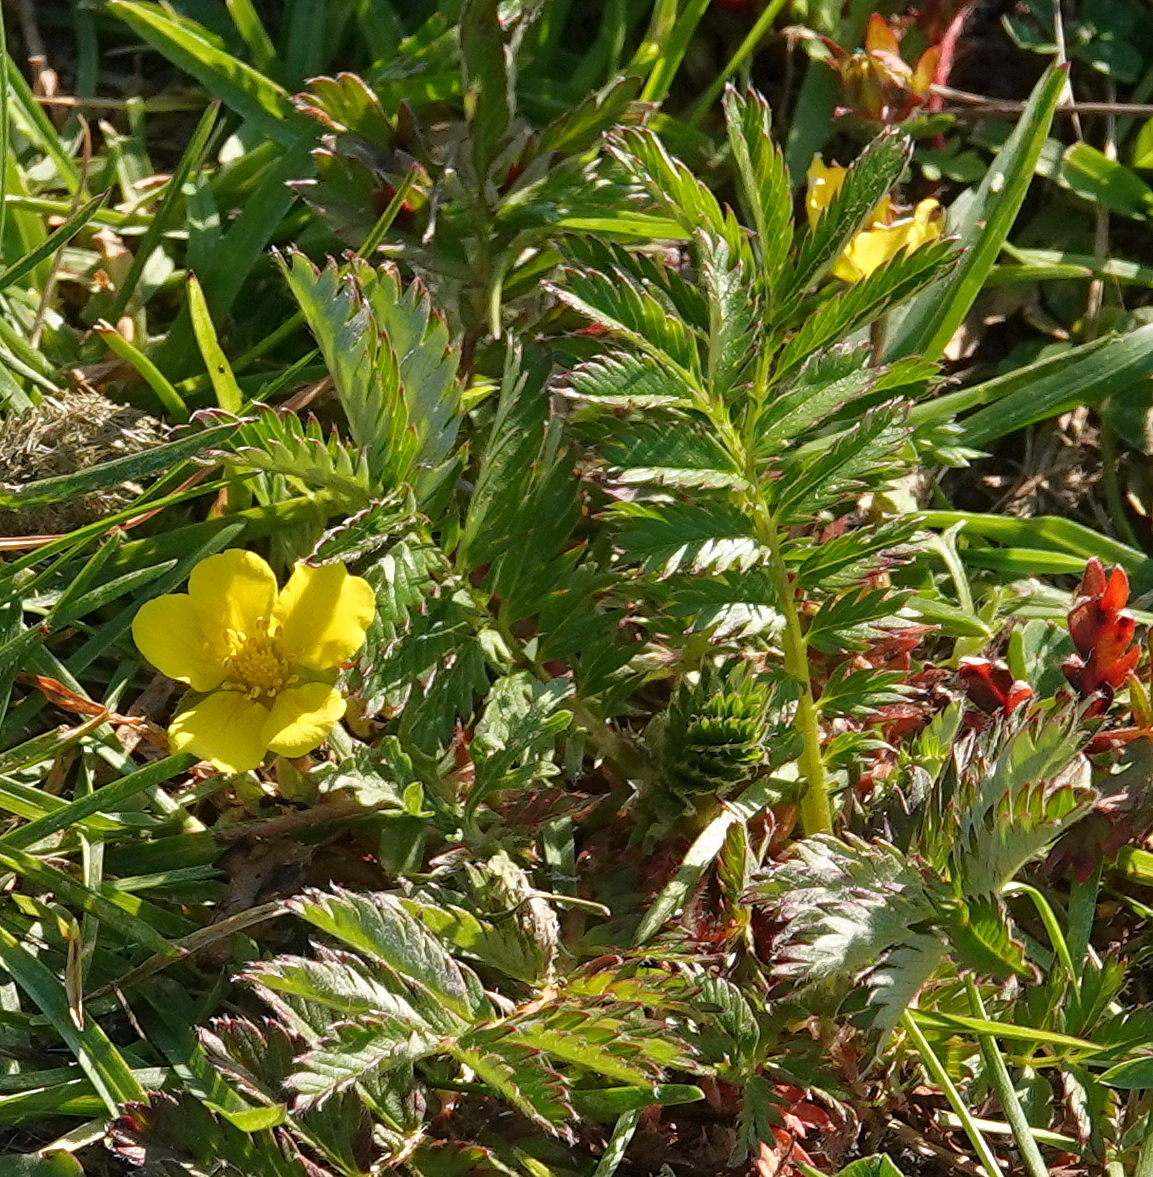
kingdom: Plantae
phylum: Tracheophyta
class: Magnoliopsida
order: Rosales
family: Rosaceae
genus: Argentina
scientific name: Argentina anserina
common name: Common silverweed
